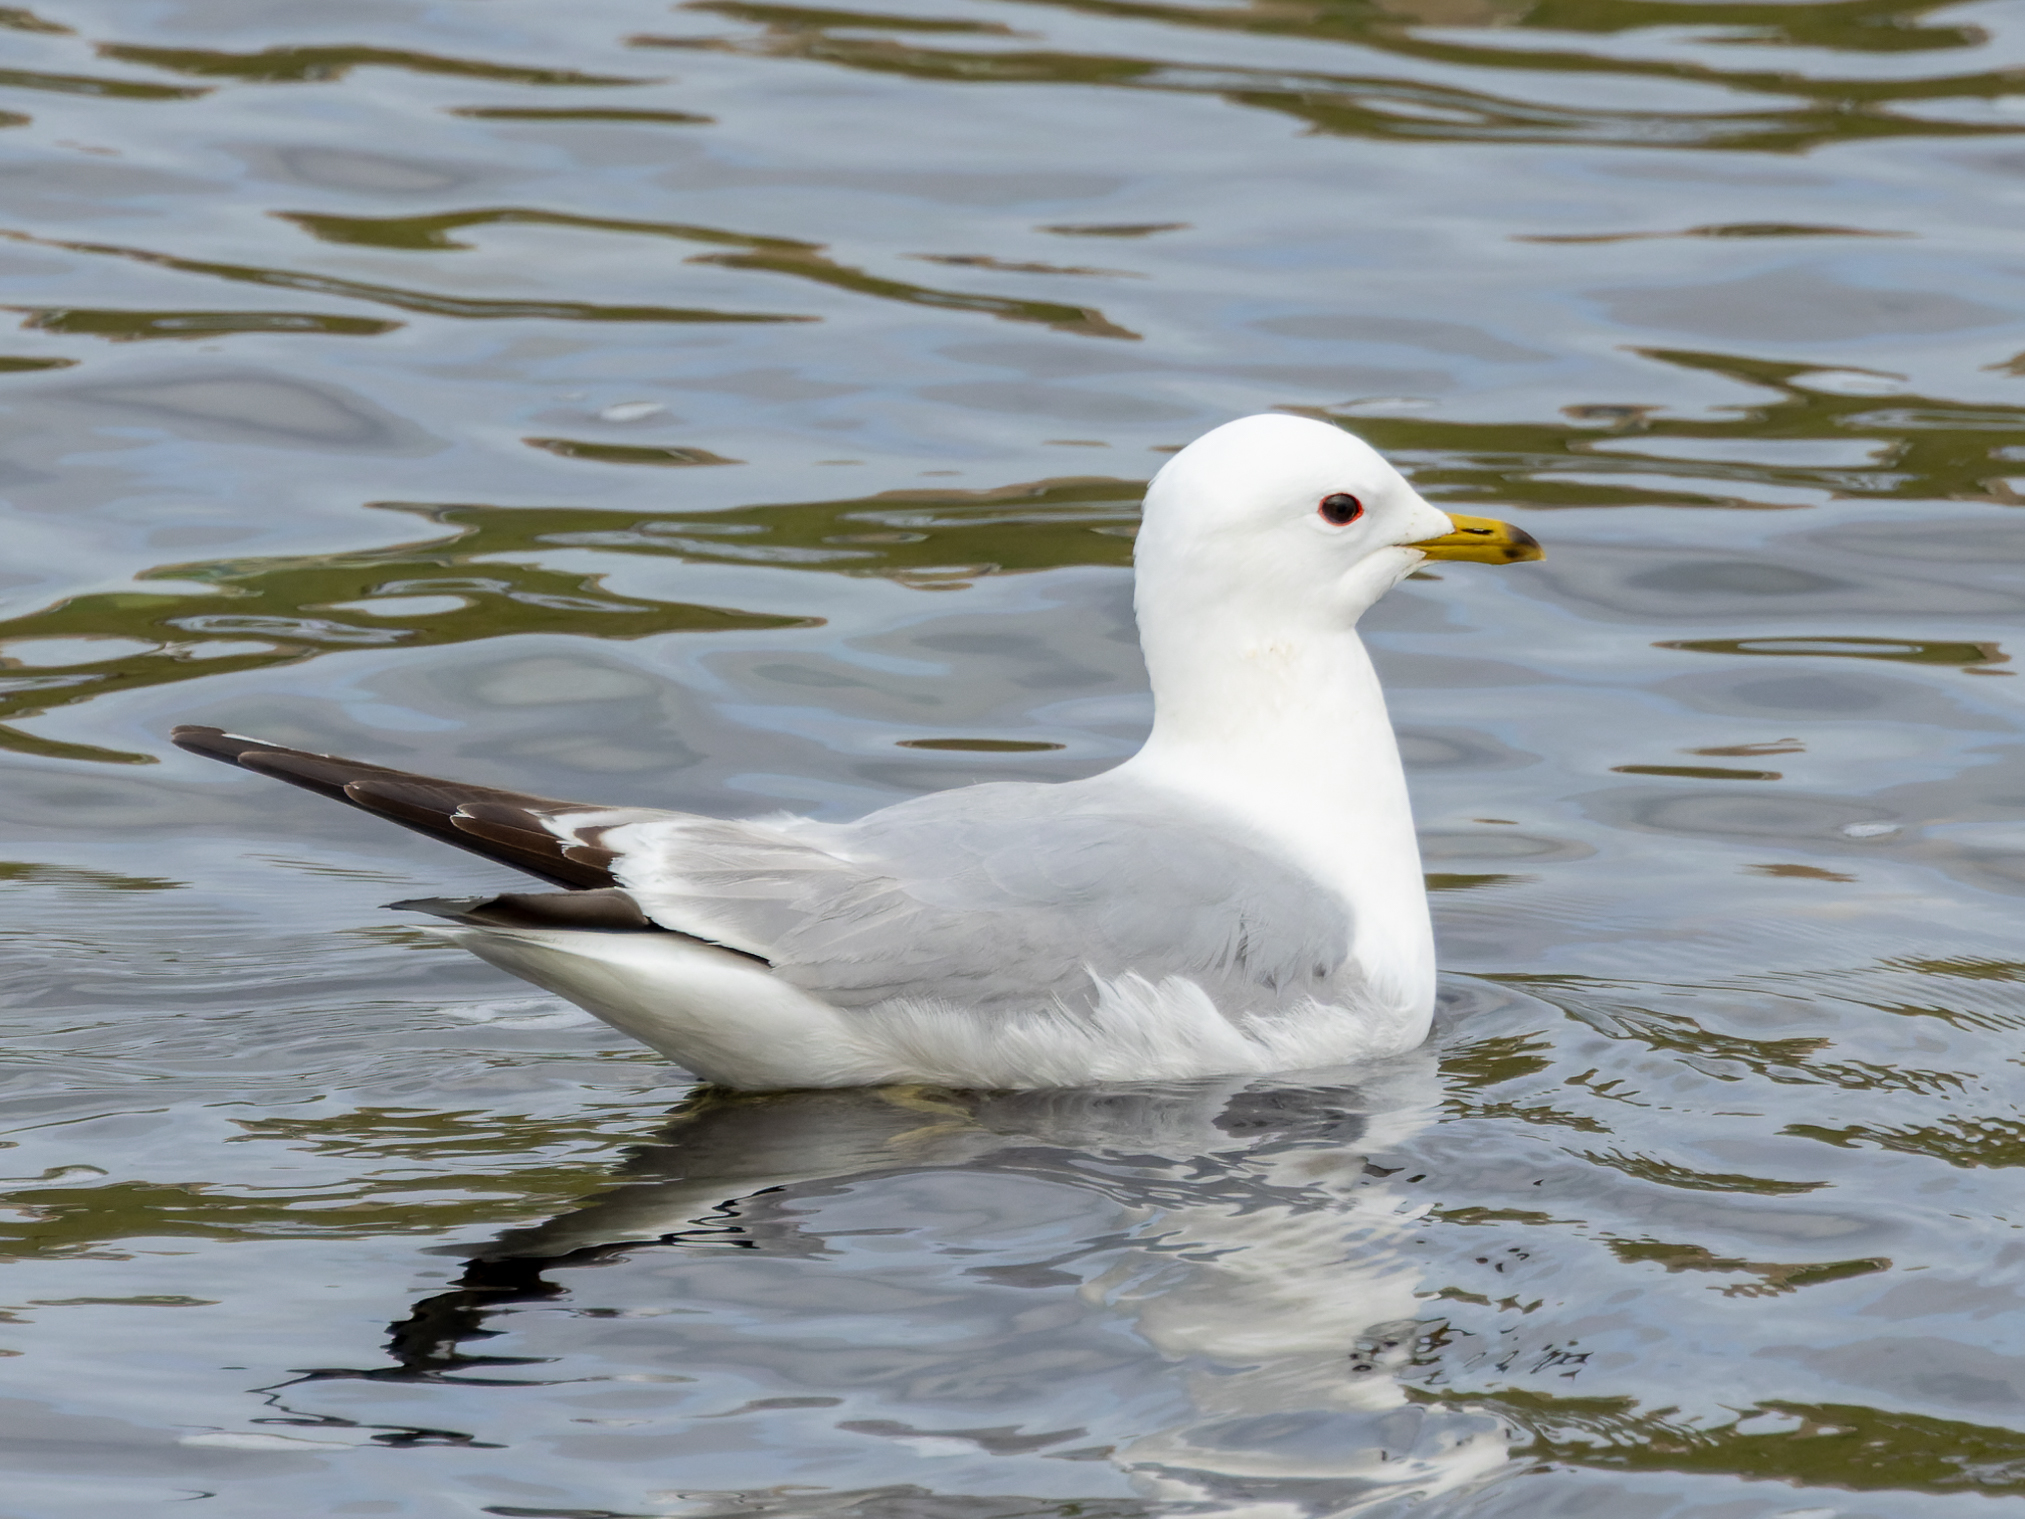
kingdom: Animalia
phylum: Chordata
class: Aves
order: Charadriiformes
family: Laridae
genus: Larus
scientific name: Larus canus
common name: Mew gull
